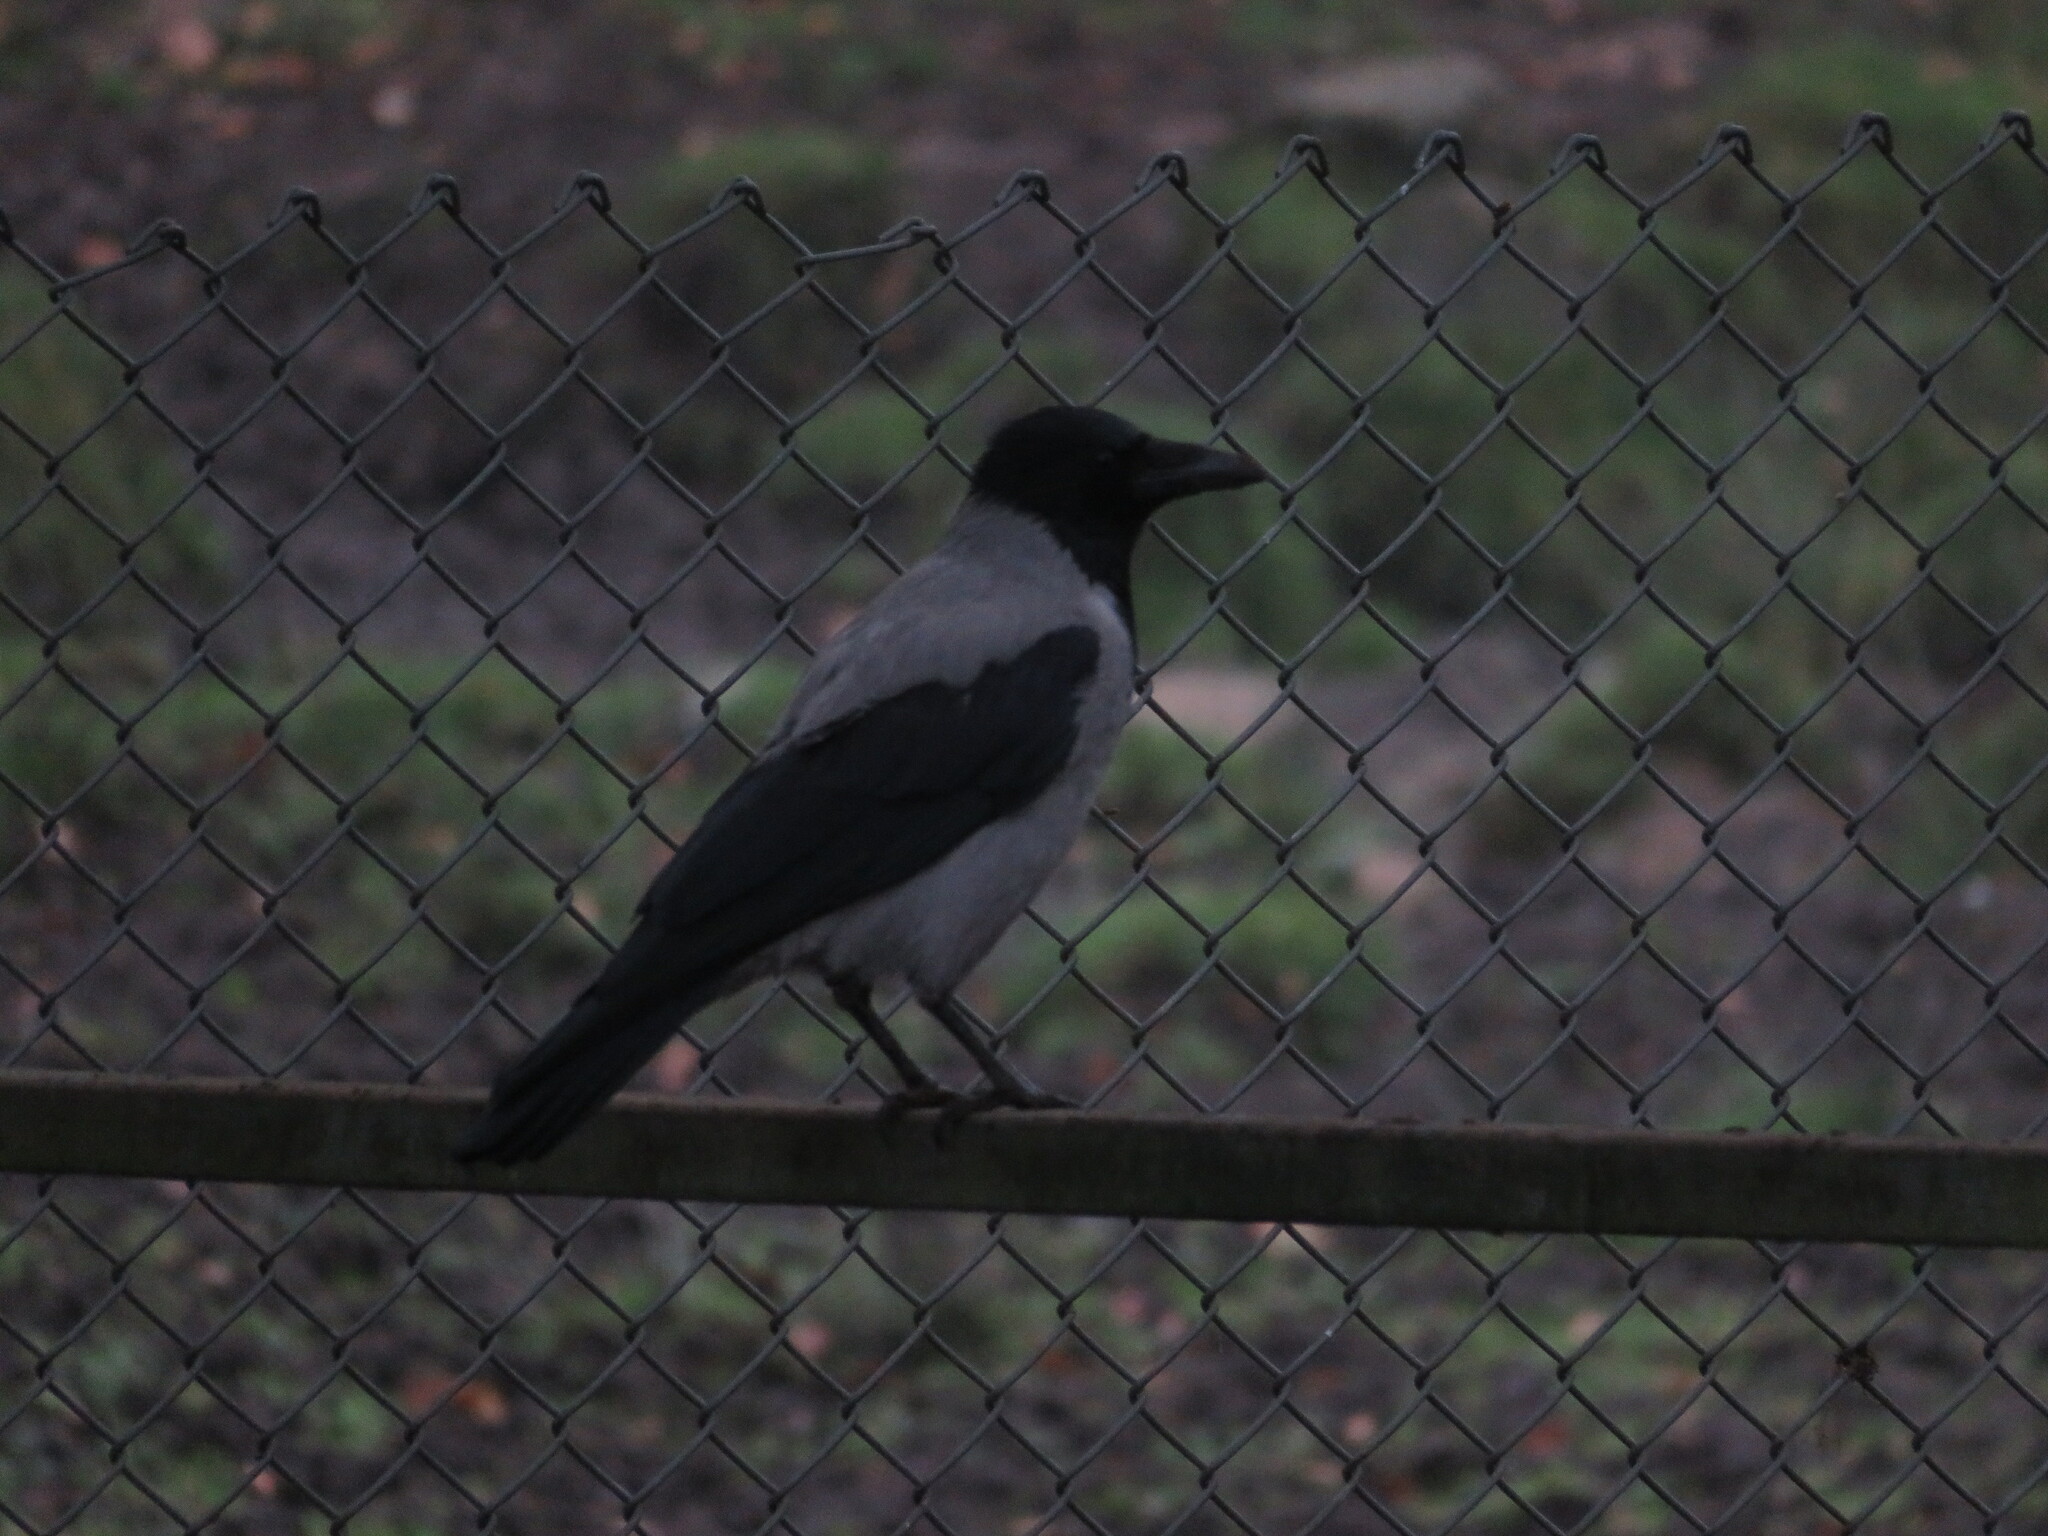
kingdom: Animalia
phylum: Chordata
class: Aves
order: Passeriformes
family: Corvidae
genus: Corvus
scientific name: Corvus cornix
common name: Hooded crow
